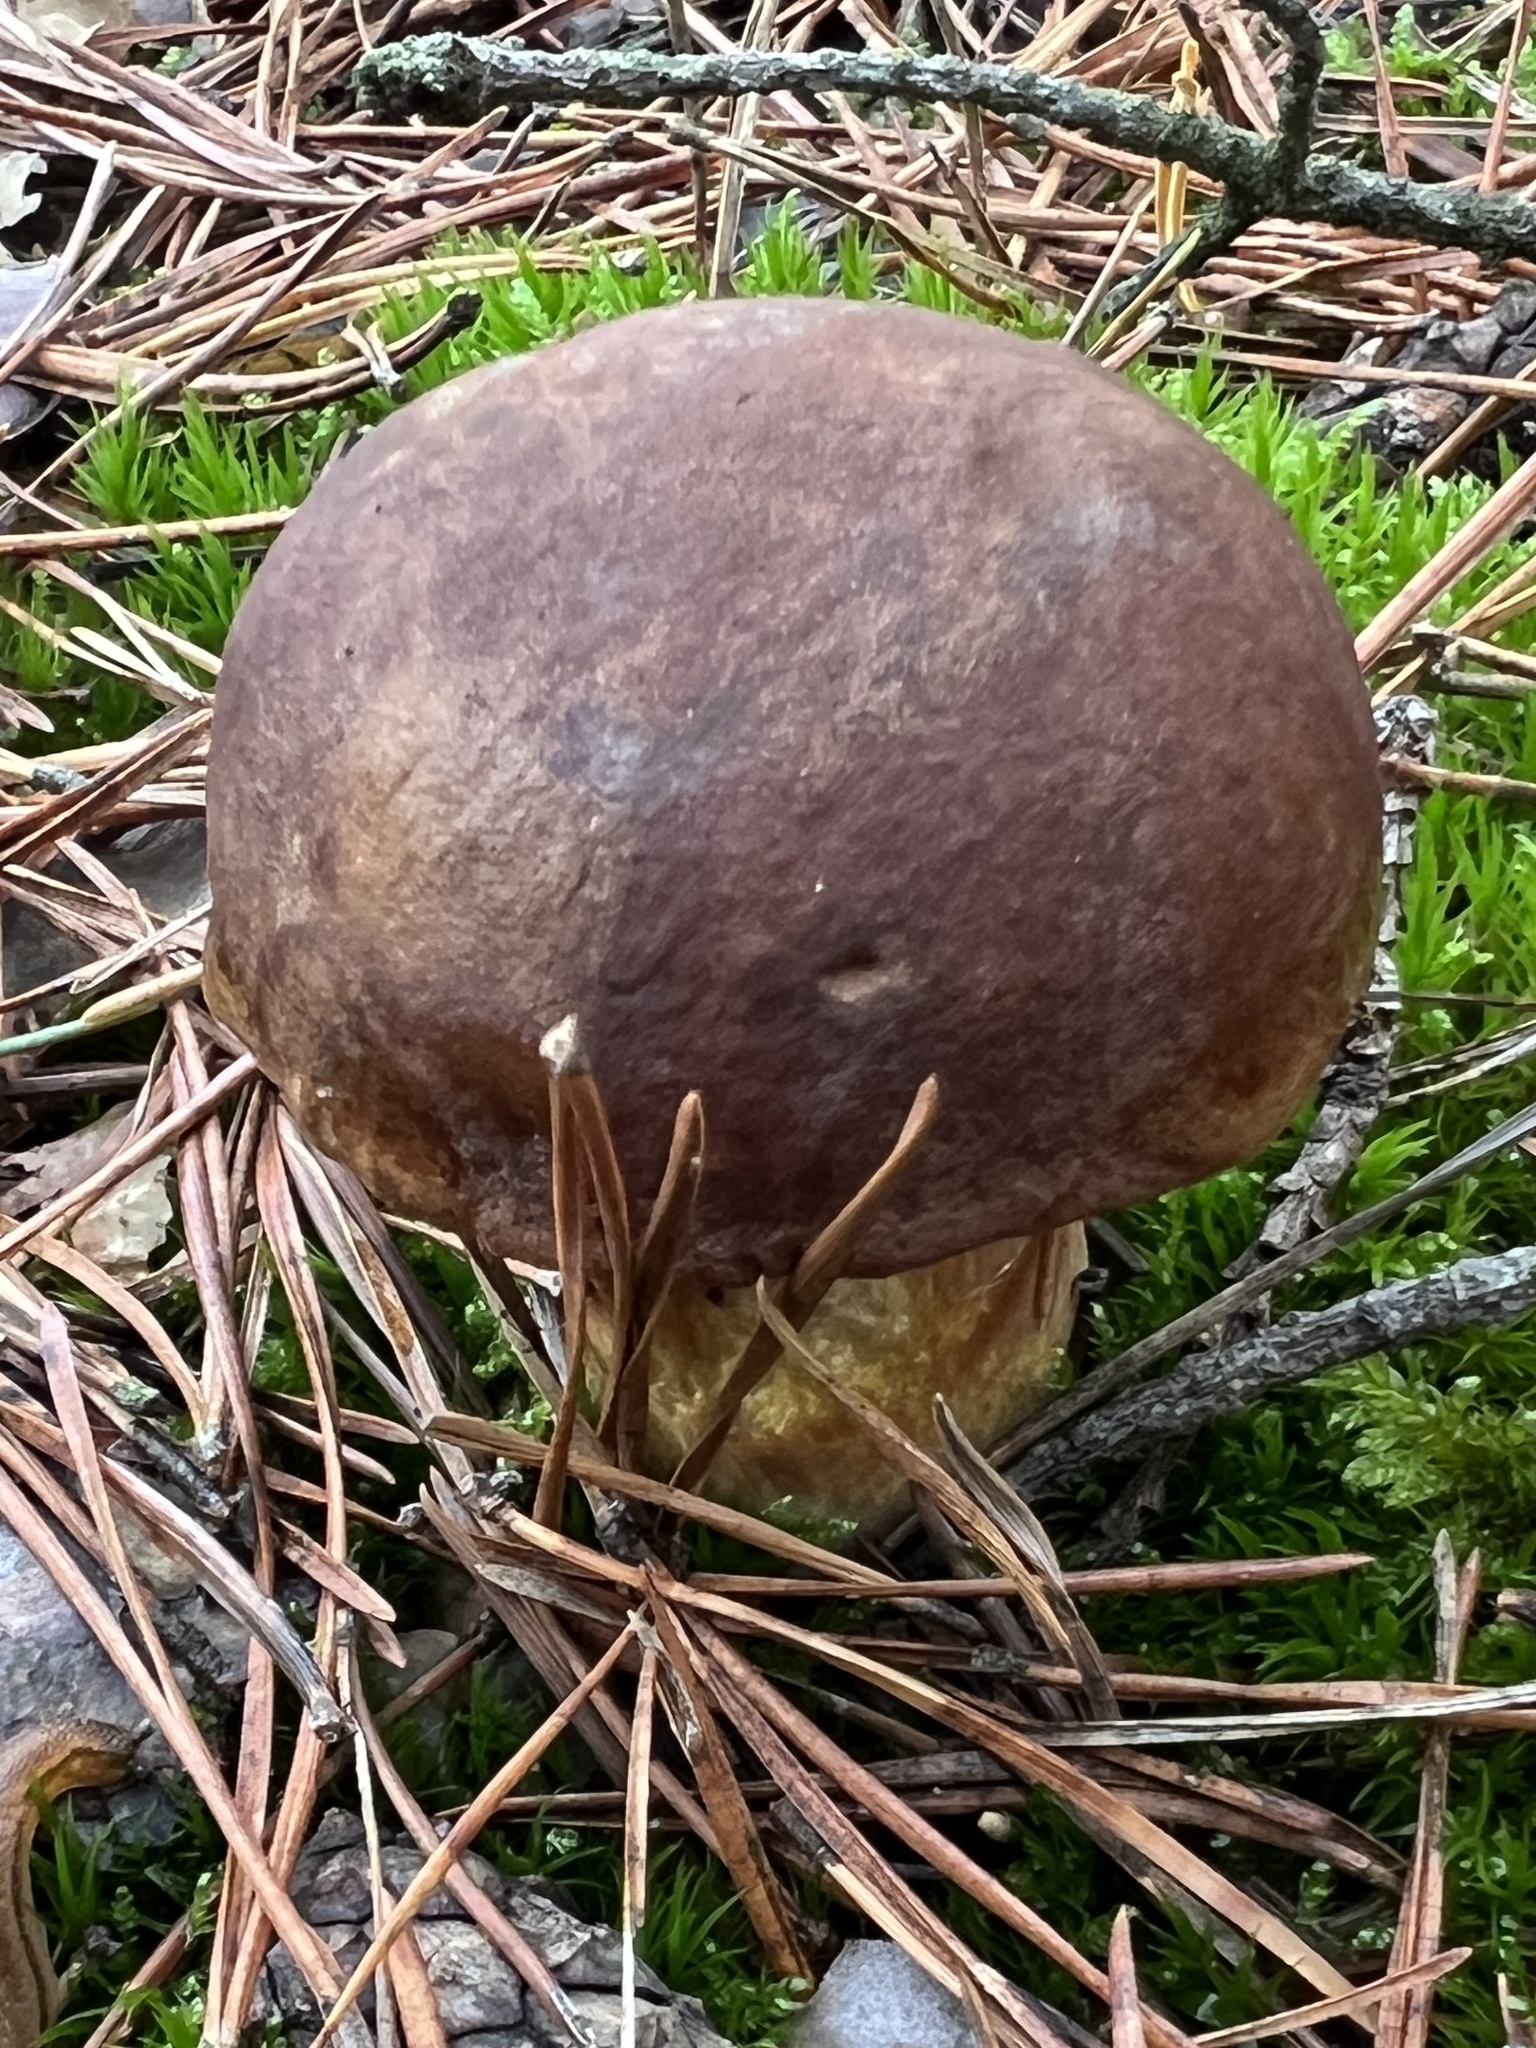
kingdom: Fungi
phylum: Basidiomycota
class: Agaricomycetes
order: Boletales
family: Boletaceae
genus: Imleria
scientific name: Imleria badia
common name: Bay bolete
